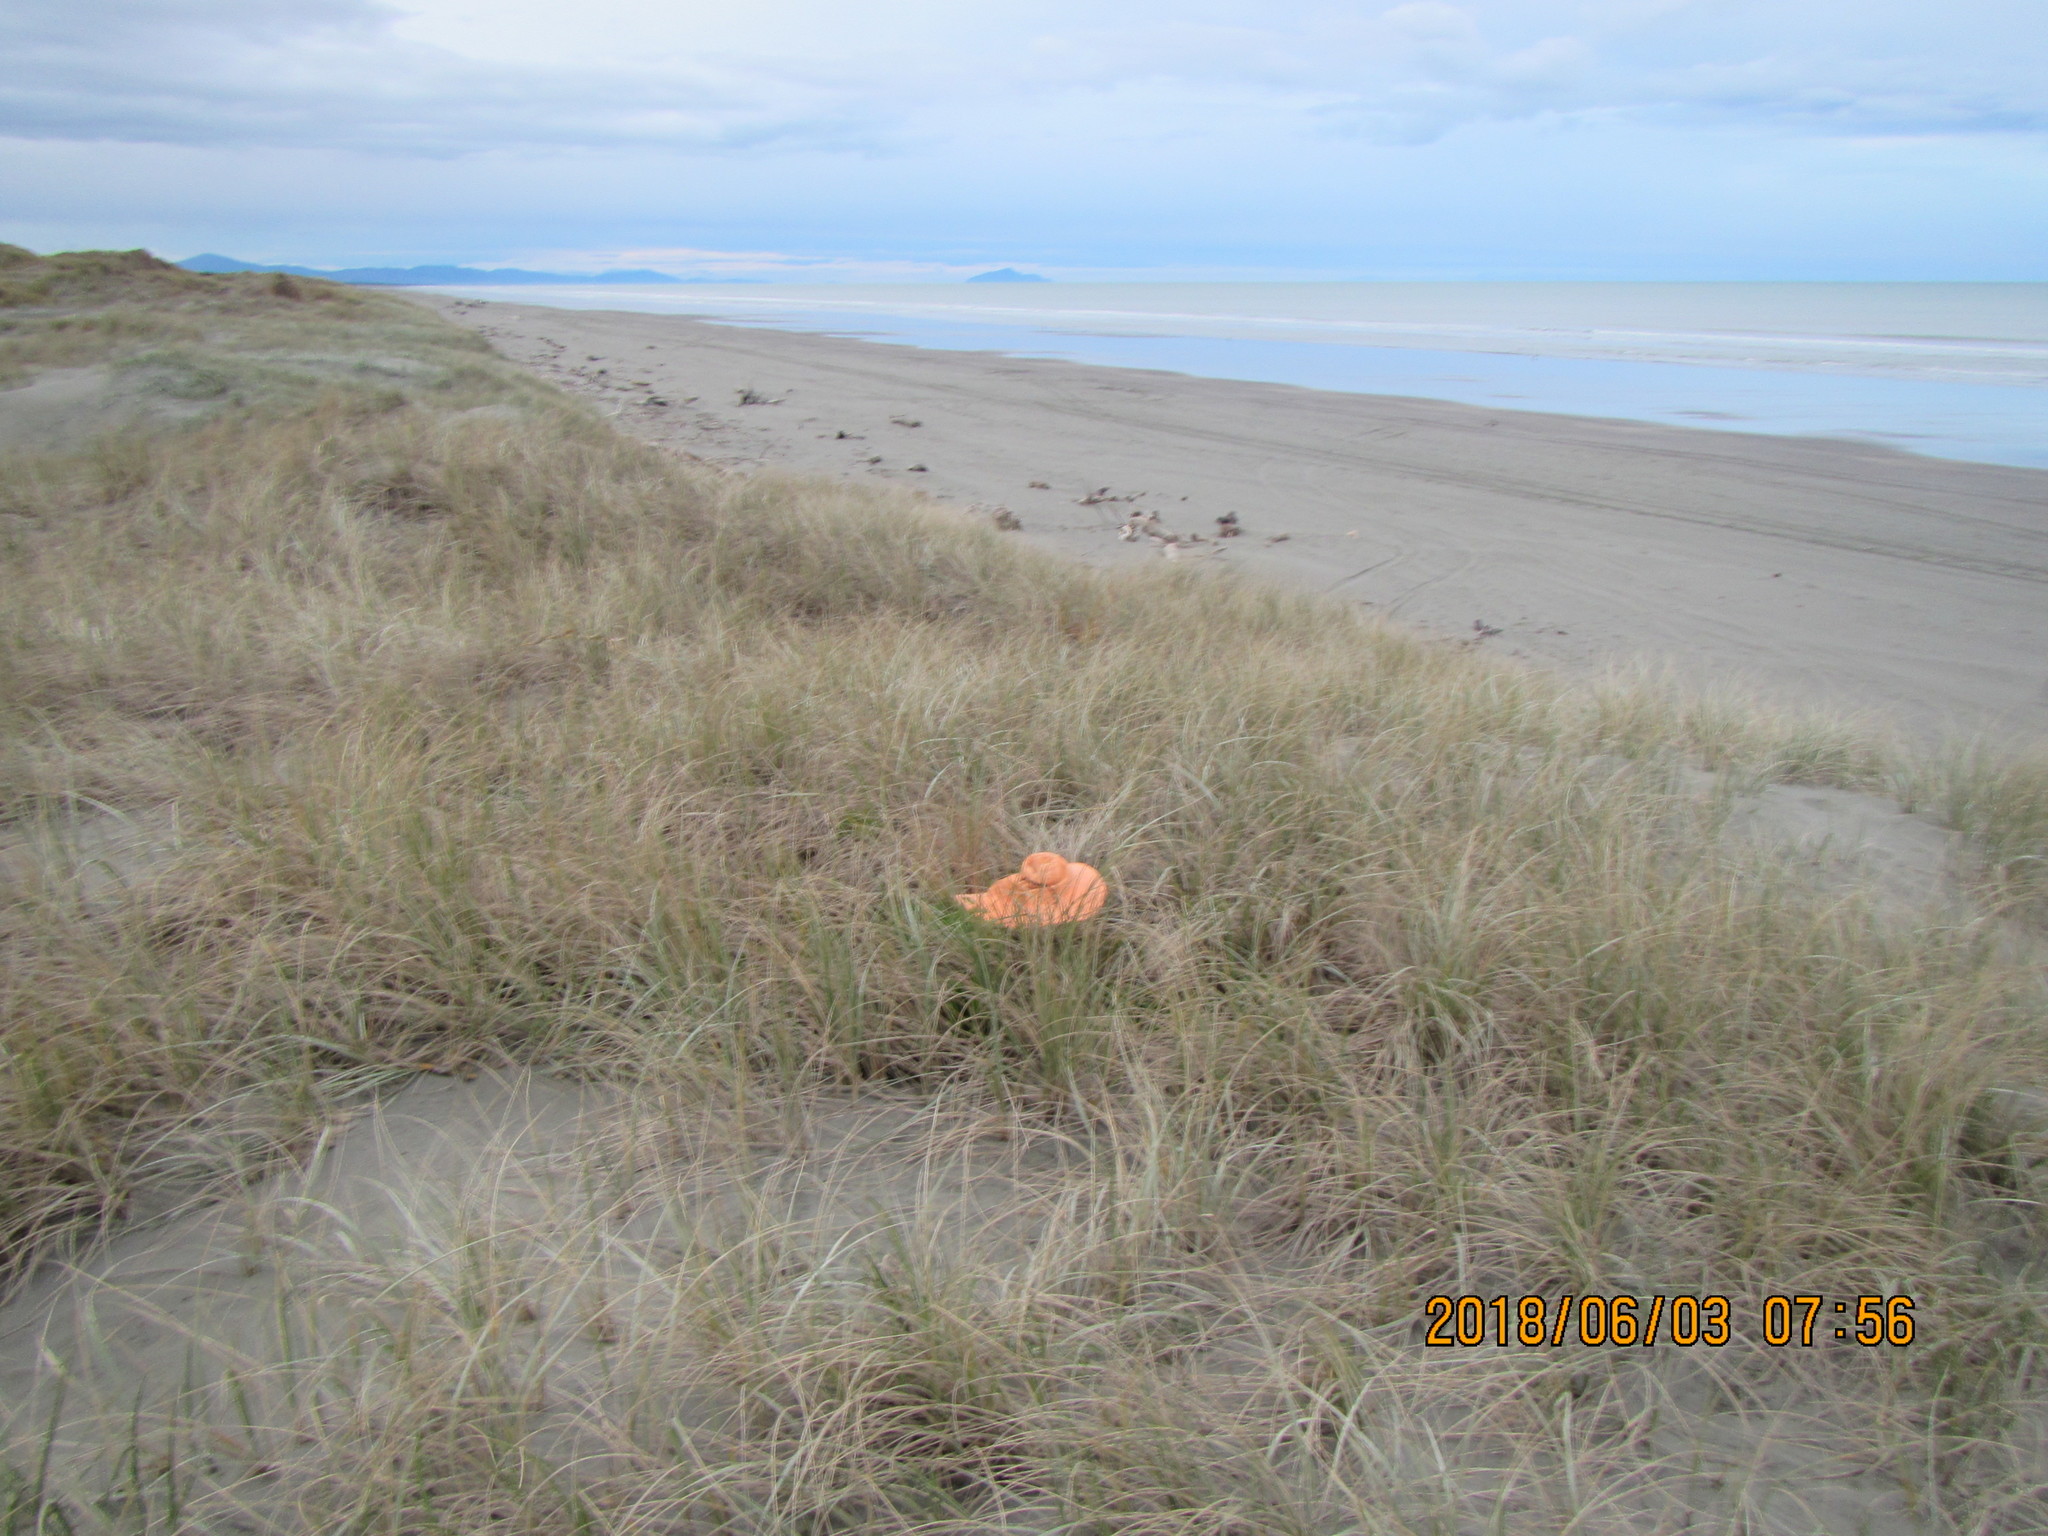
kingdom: Animalia
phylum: Arthropoda
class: Arachnida
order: Araneae
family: Thomisidae
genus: Sidymella
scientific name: Sidymella trapezia
